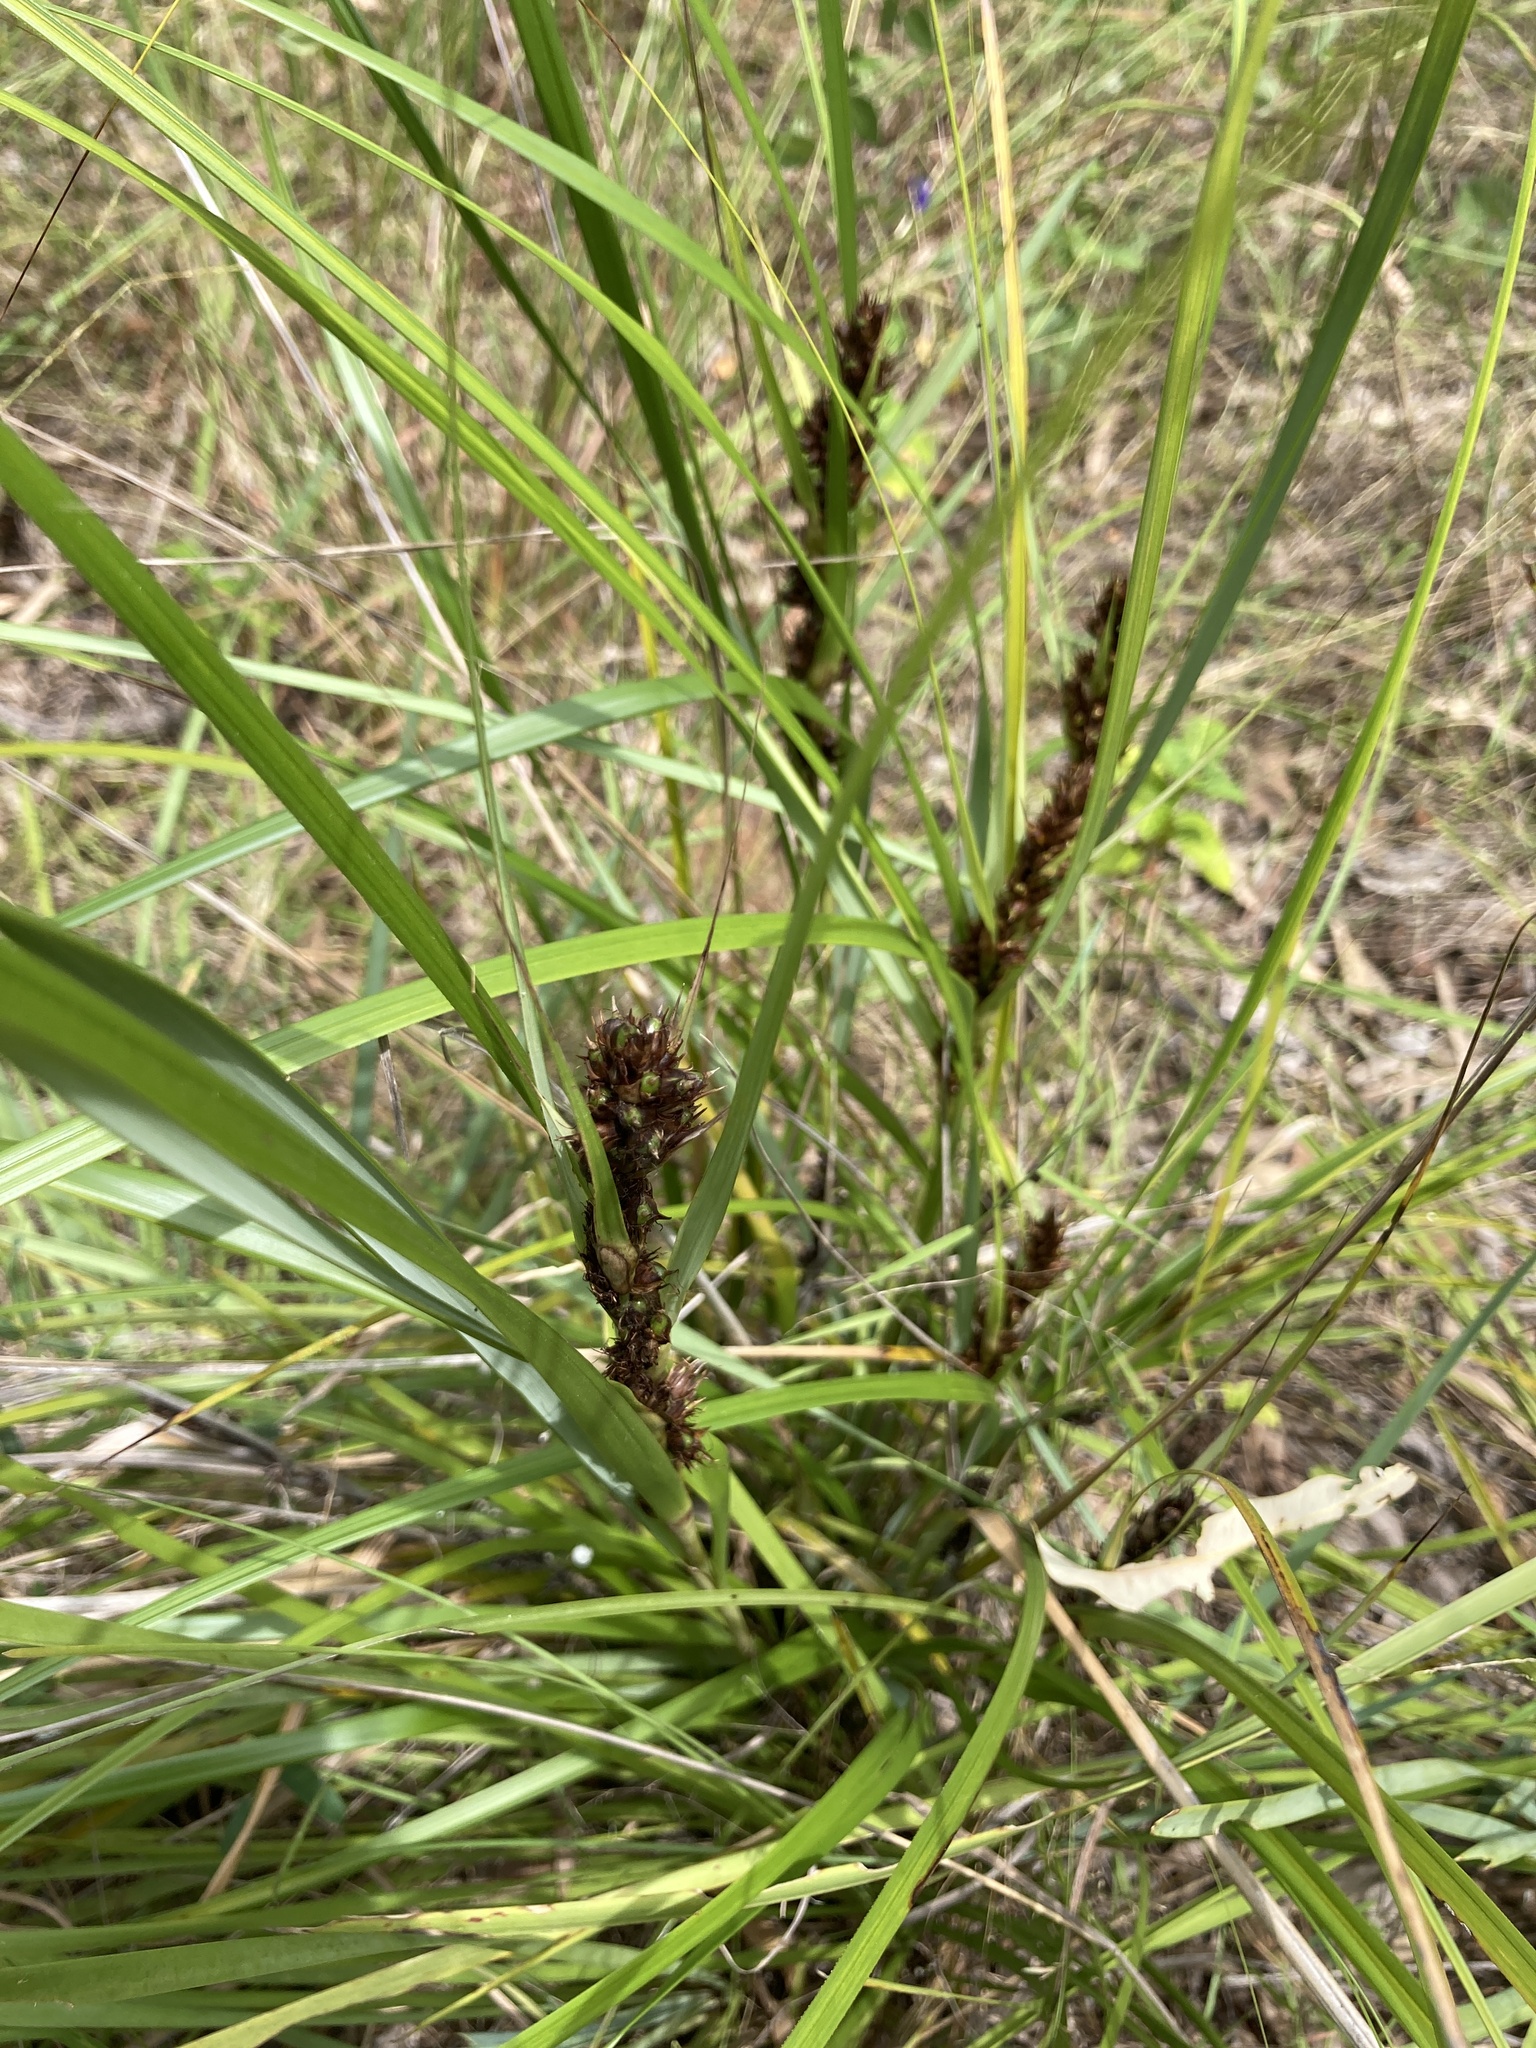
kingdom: Plantae
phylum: Tracheophyta
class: Liliopsida
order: Poales
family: Cyperaceae
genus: Gahnia
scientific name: Gahnia aspera
